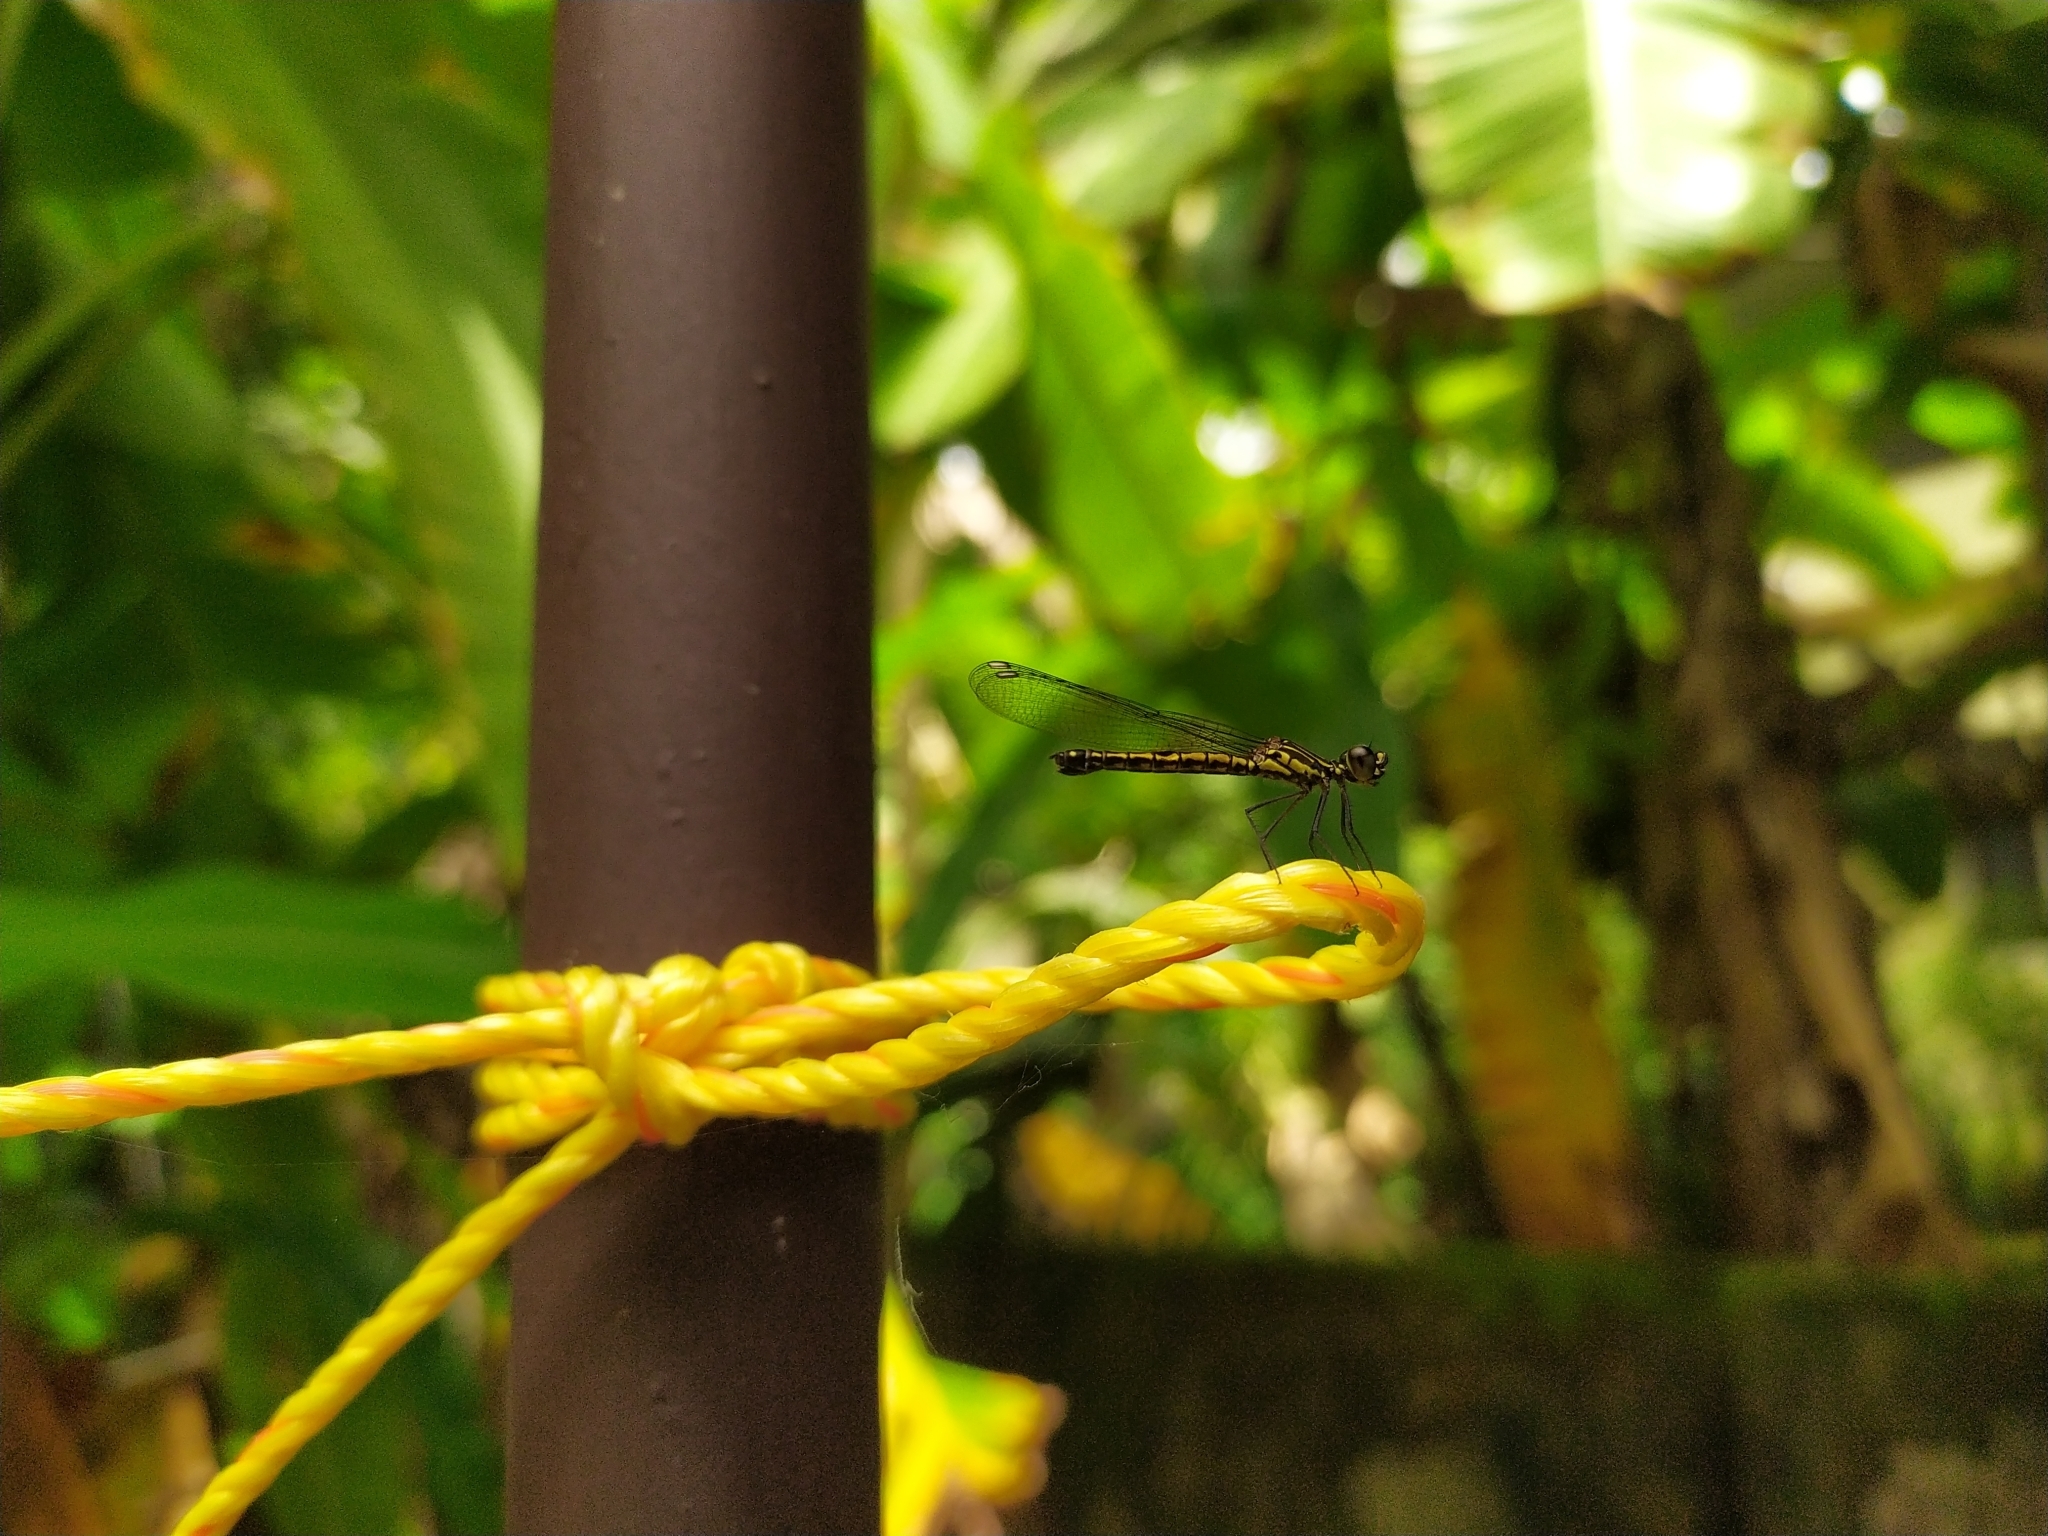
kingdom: Animalia
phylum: Arthropoda
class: Insecta
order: Odonata
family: Chlorocyphidae
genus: Libellago
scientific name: Libellago indica
